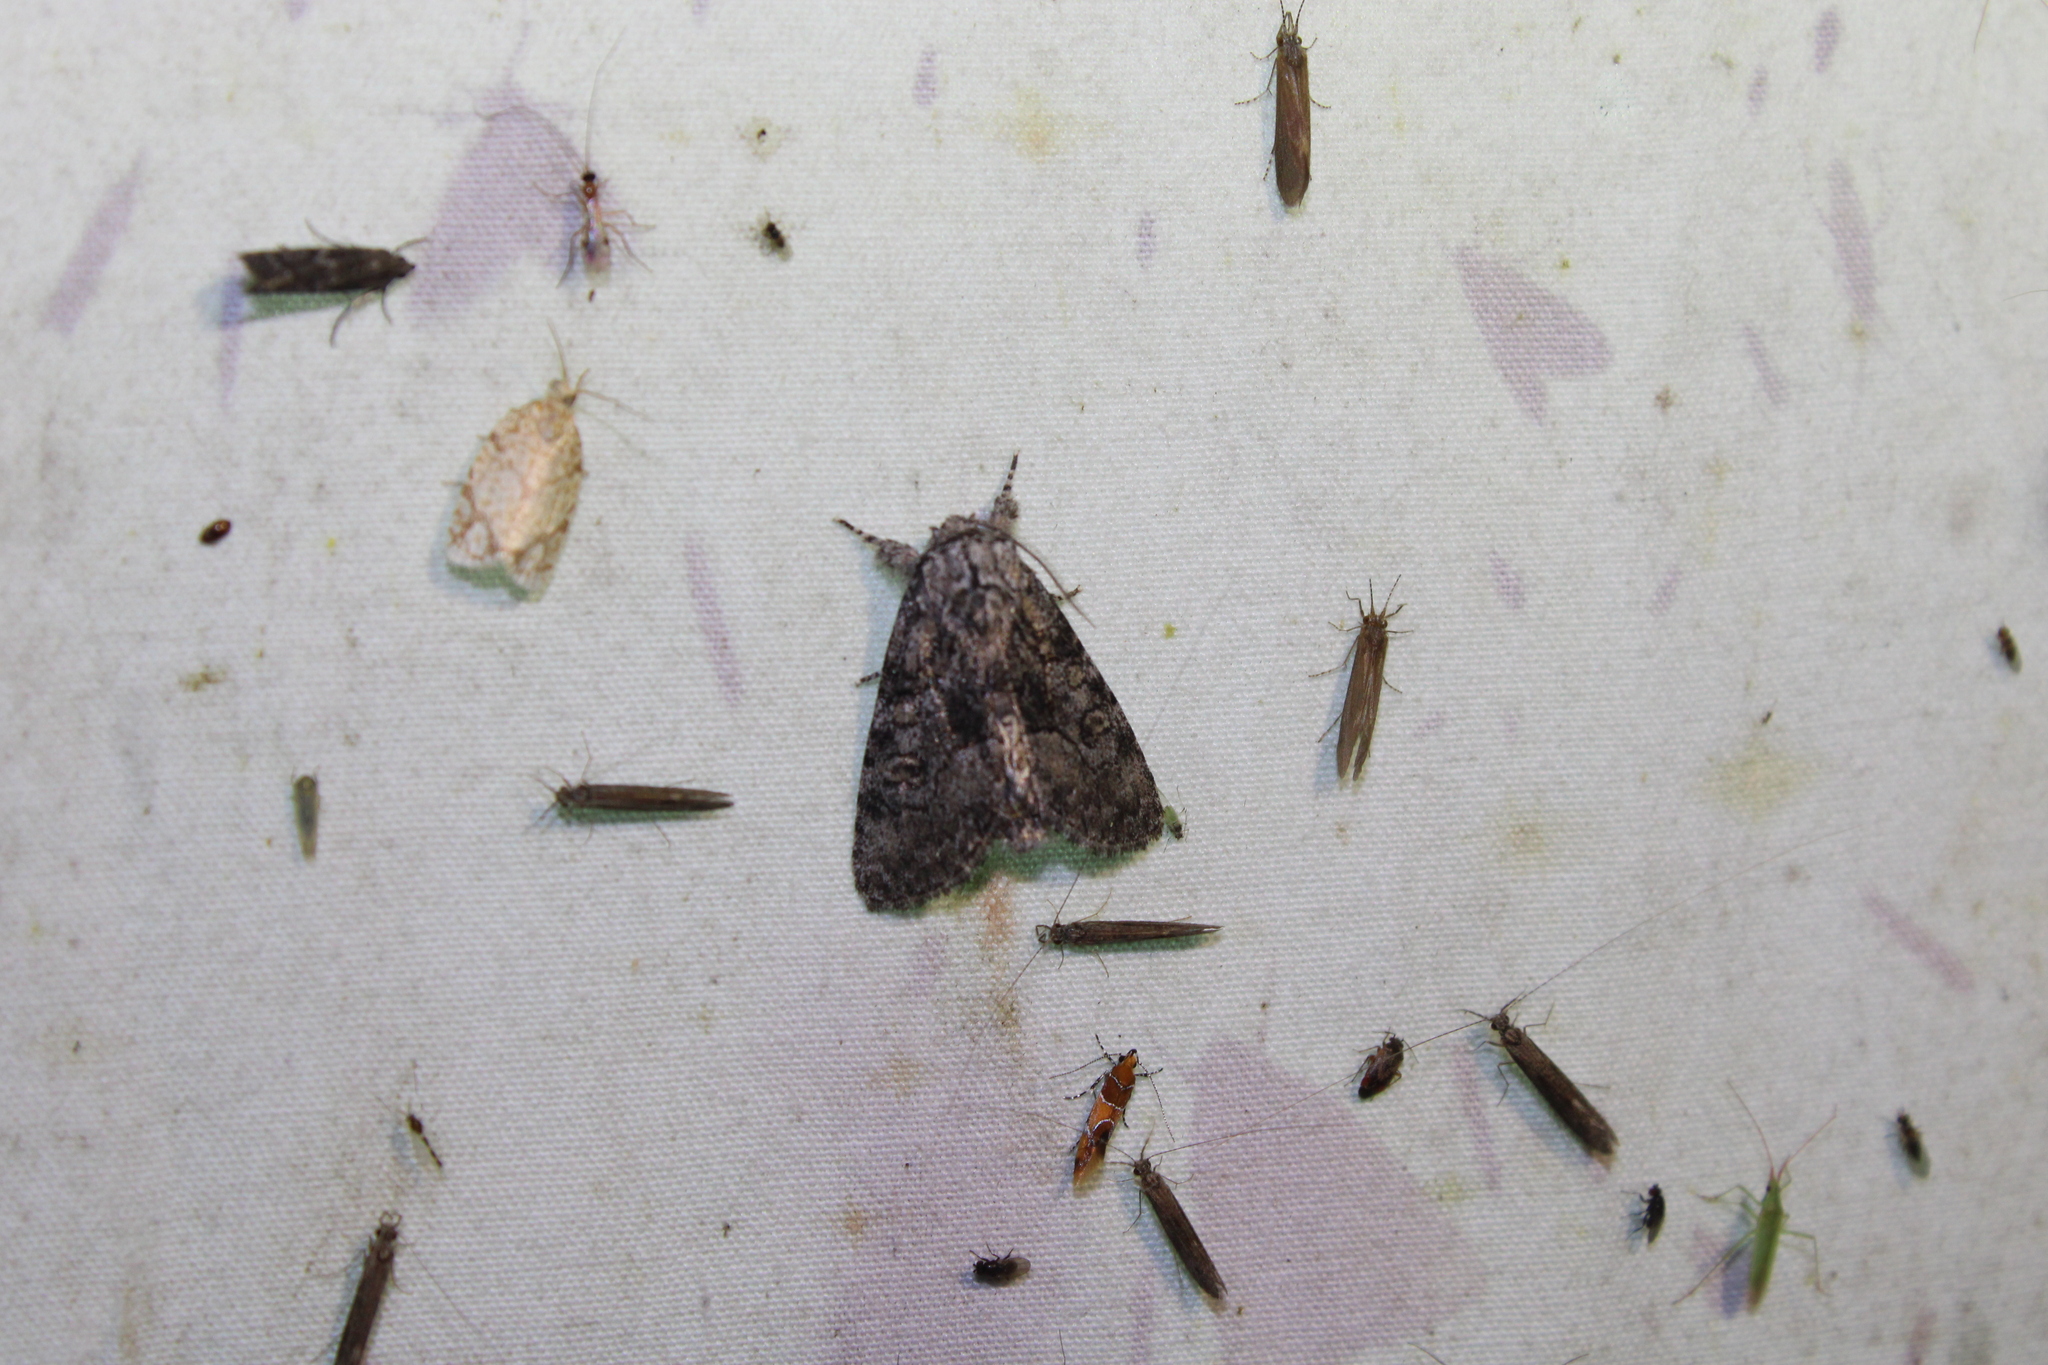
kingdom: Animalia
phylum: Arthropoda
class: Insecta
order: Lepidoptera
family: Noctuidae
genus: Raphia
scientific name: Raphia frater
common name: Brother
